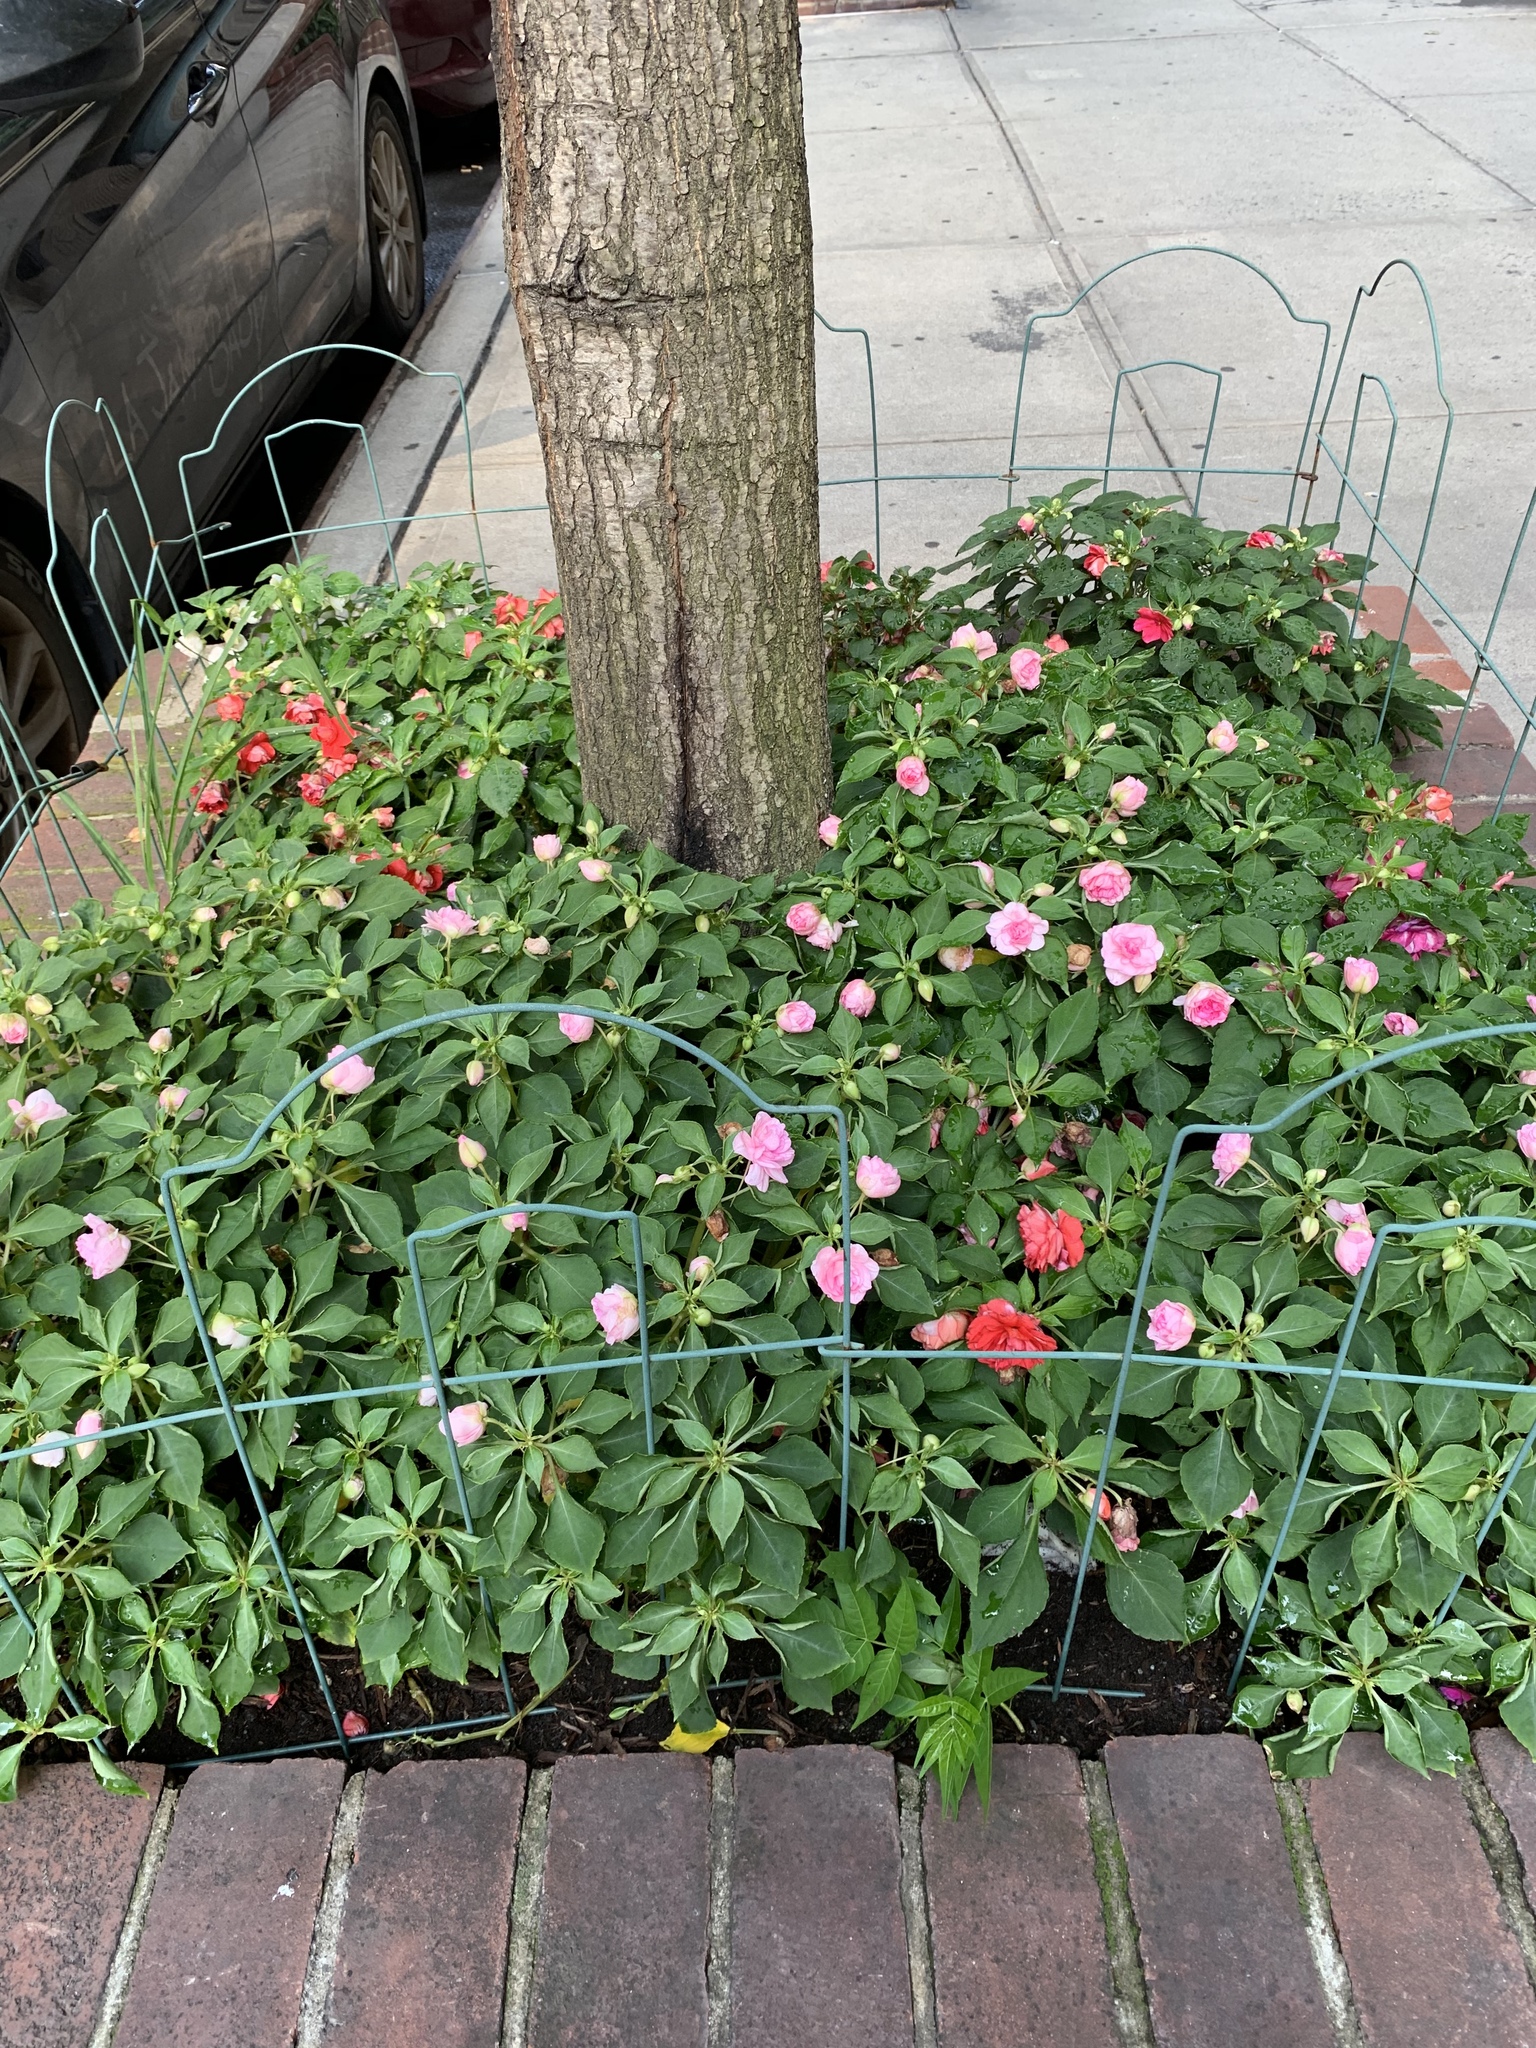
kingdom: Plantae
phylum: Tracheophyta
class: Magnoliopsida
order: Sapindales
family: Simaroubaceae
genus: Ailanthus
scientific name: Ailanthus altissima
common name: Tree-of-heaven
